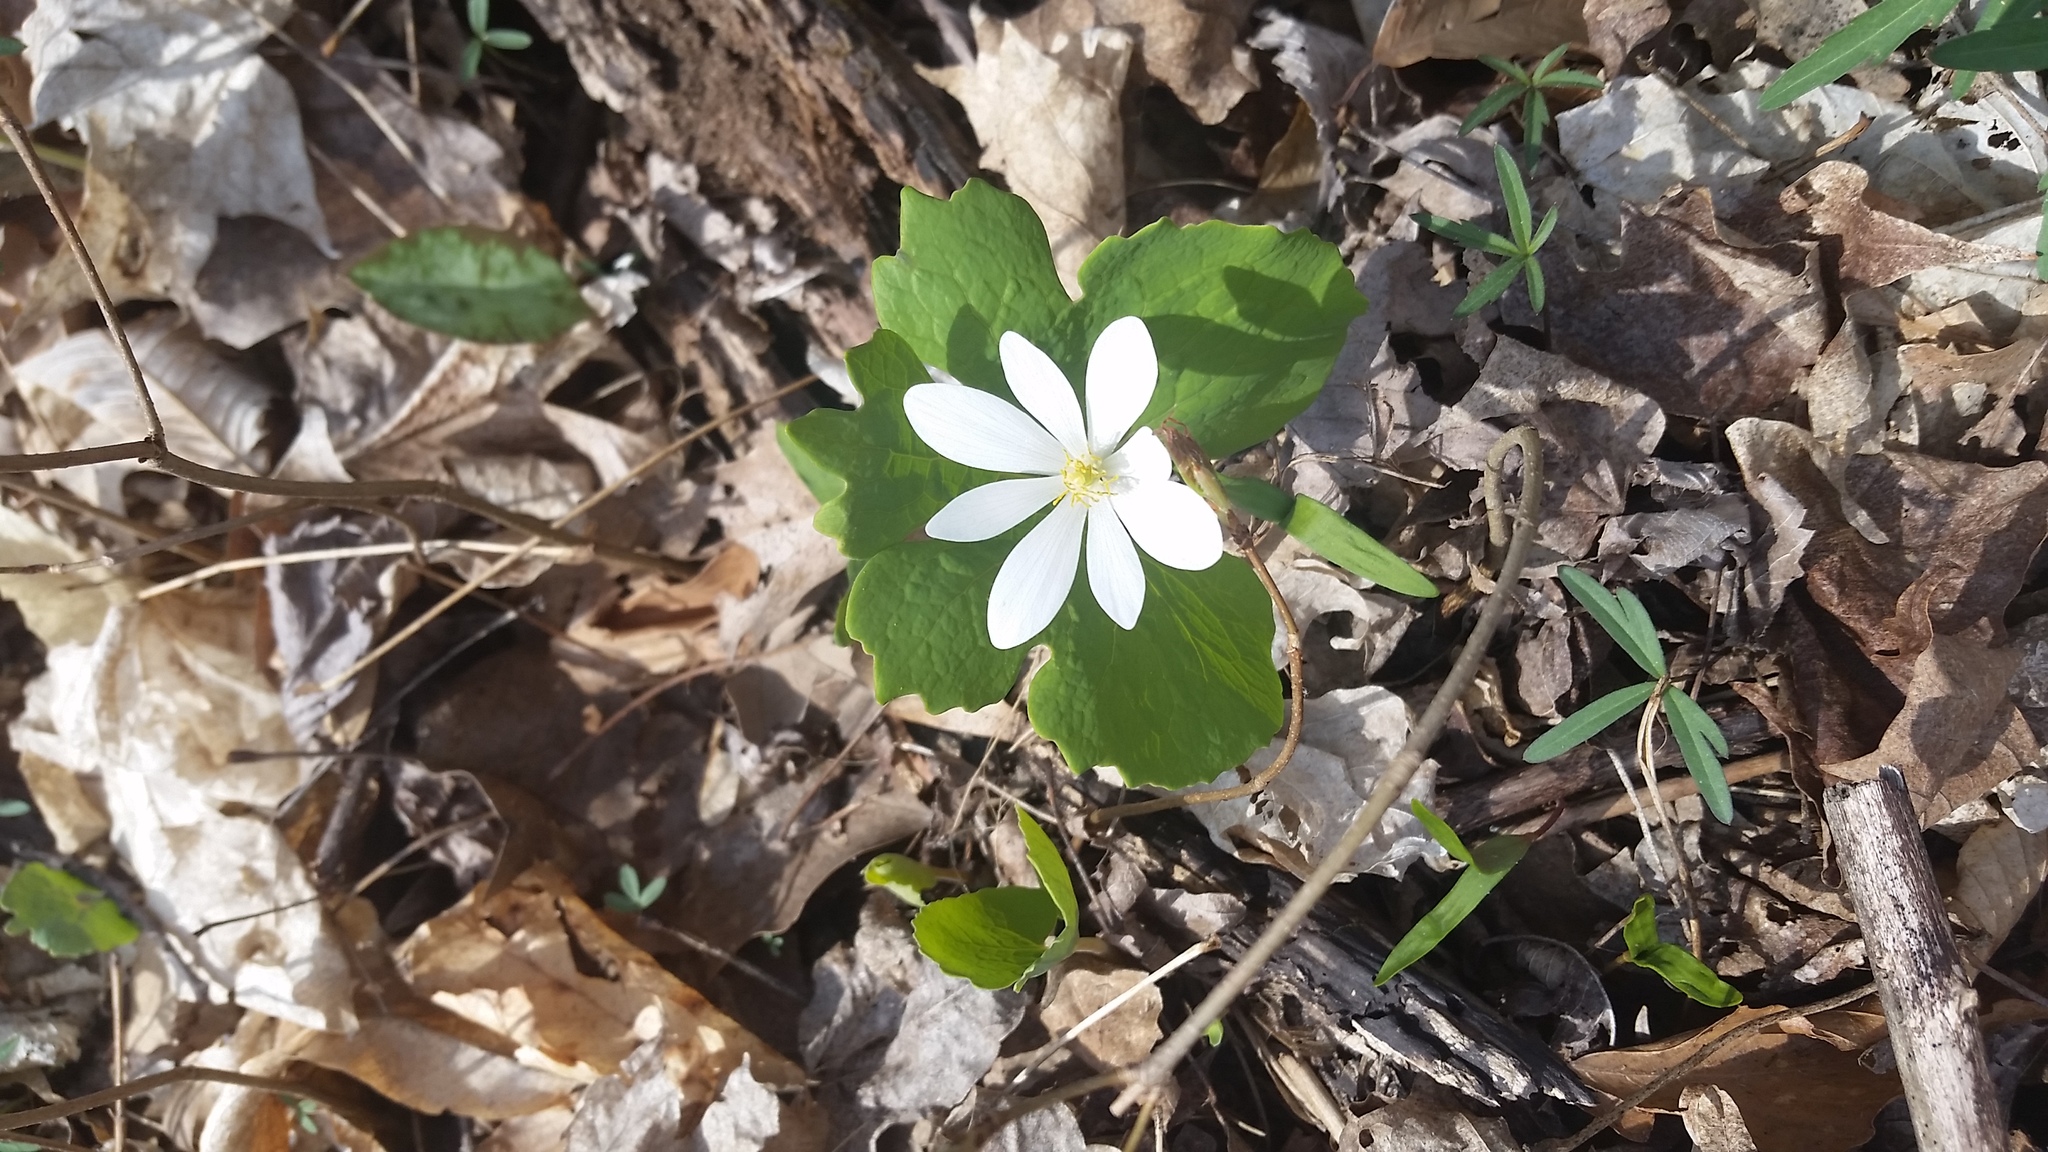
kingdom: Plantae
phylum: Tracheophyta
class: Magnoliopsida
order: Ranunculales
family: Papaveraceae
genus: Sanguinaria
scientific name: Sanguinaria canadensis
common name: Bloodroot
